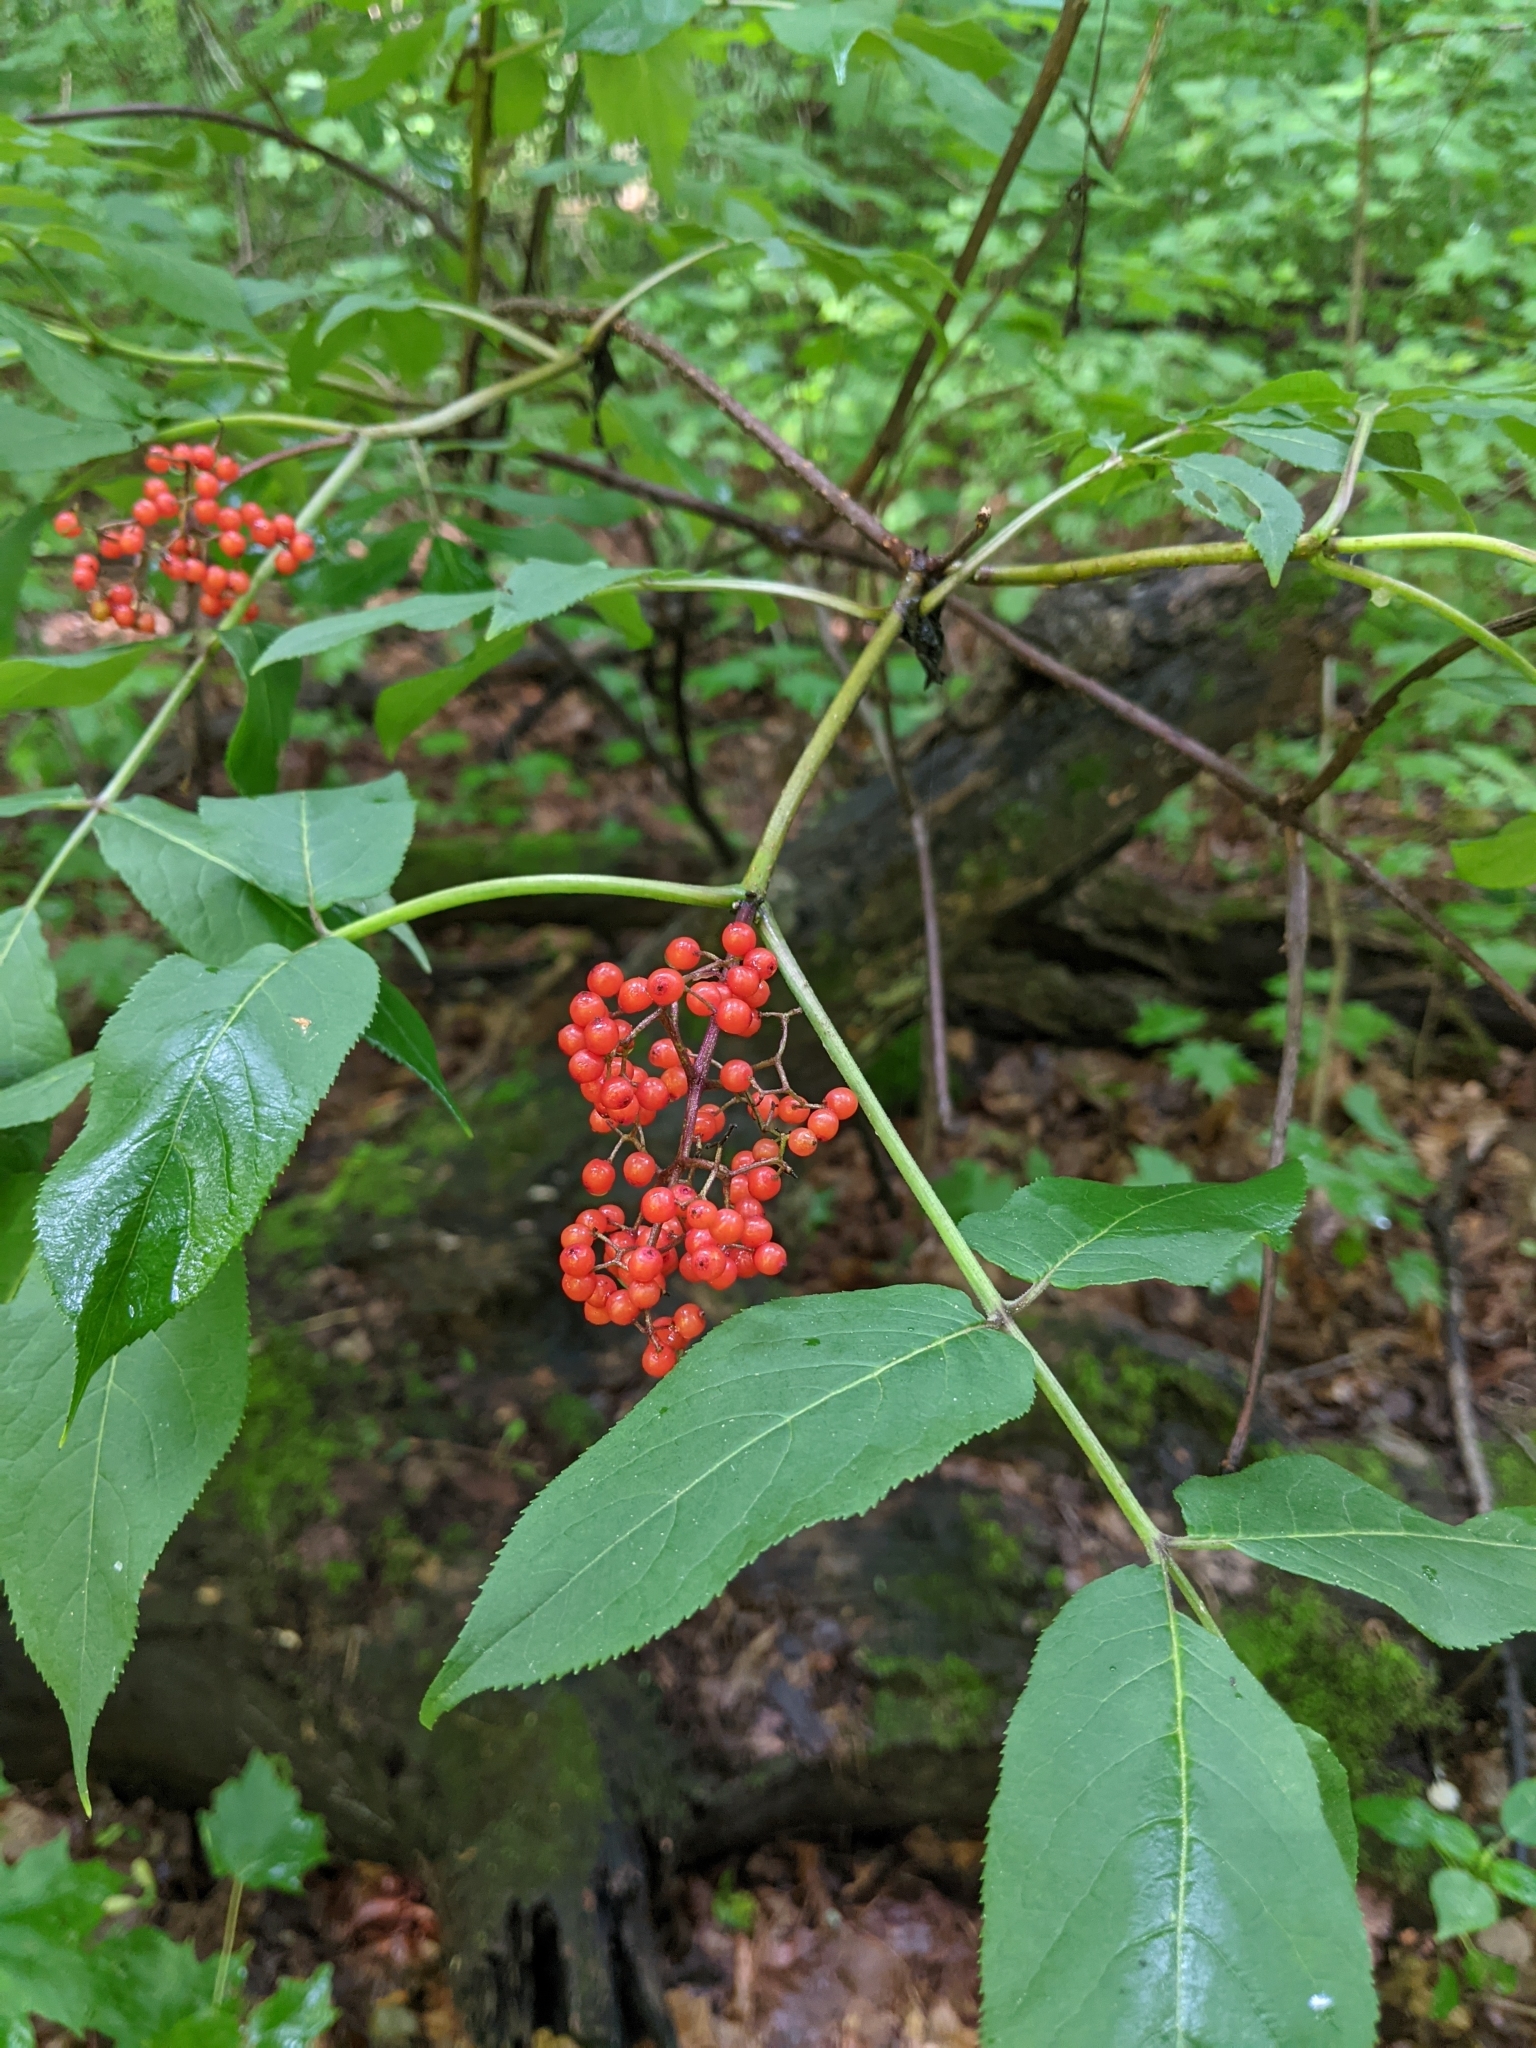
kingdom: Plantae
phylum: Tracheophyta
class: Magnoliopsida
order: Dipsacales
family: Viburnaceae
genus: Sambucus
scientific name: Sambucus racemosa
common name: Red-berried elder
